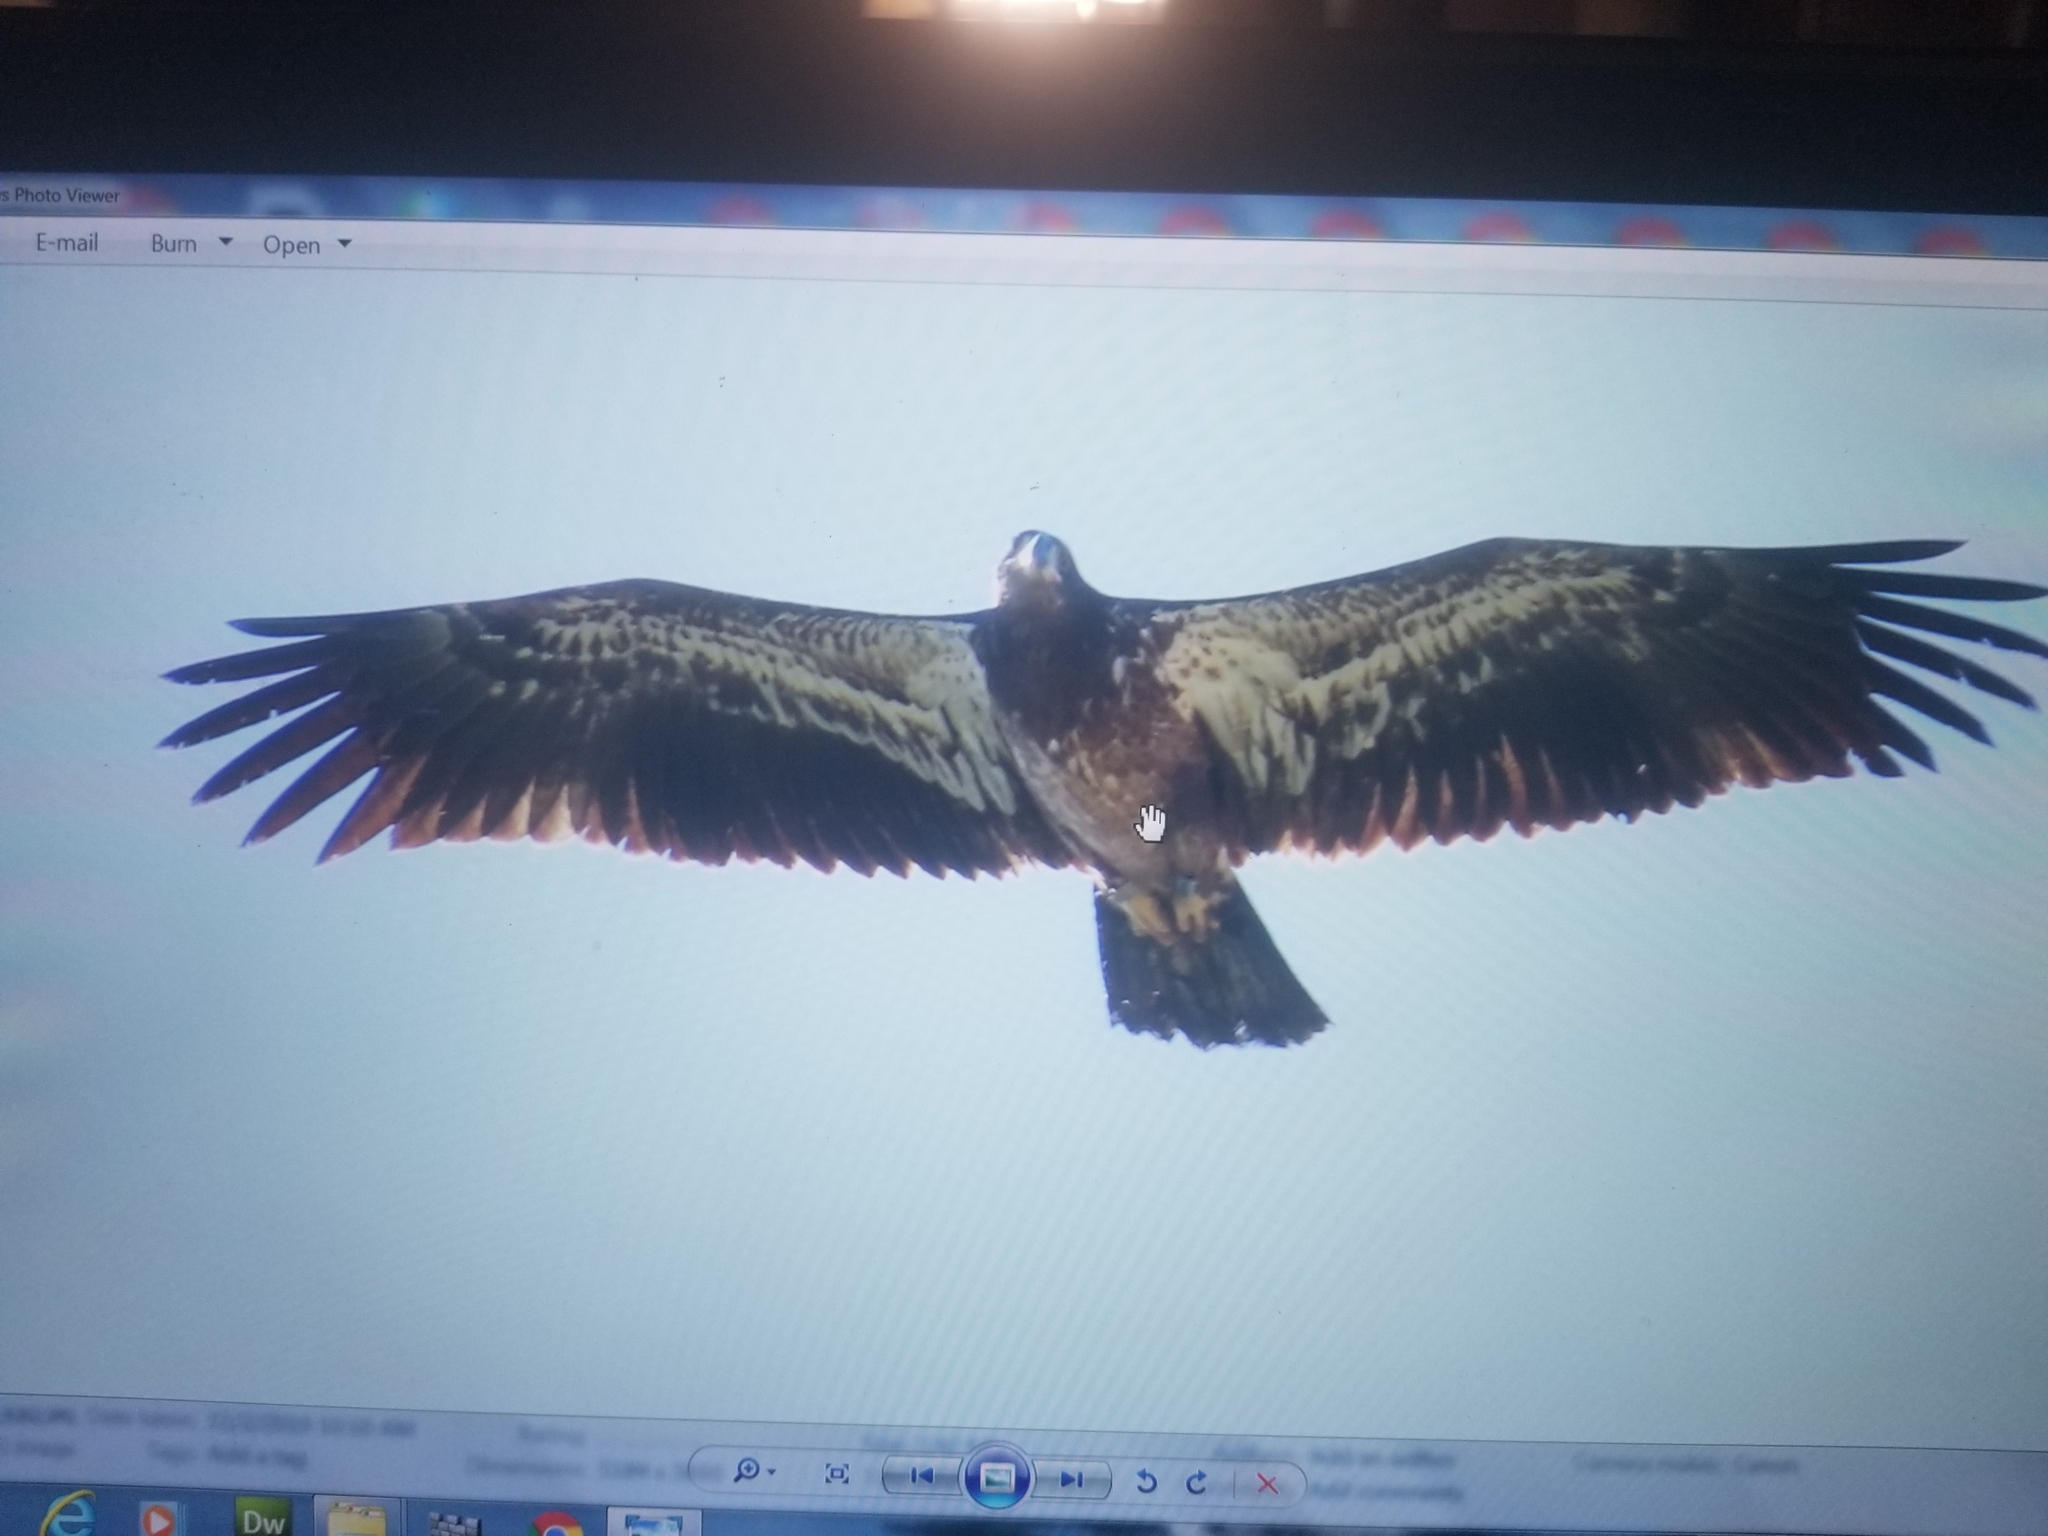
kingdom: Animalia
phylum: Chordata
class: Aves
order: Accipitriformes
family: Accipitridae
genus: Haliaeetus
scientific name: Haliaeetus leucocephalus
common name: Bald eagle
